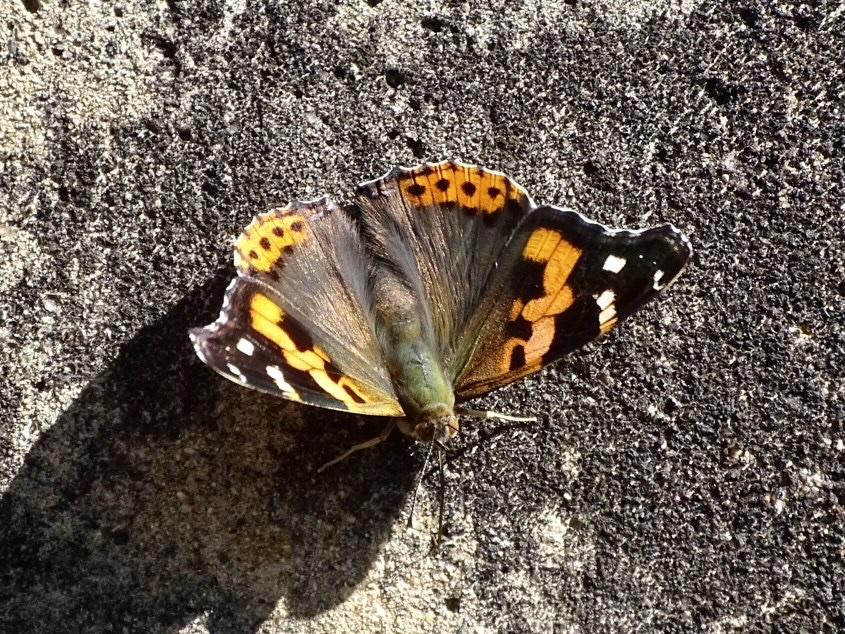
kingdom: Animalia
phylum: Arthropoda
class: Insecta
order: Lepidoptera
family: Nymphalidae
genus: Vanessa
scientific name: Vanessa indica
